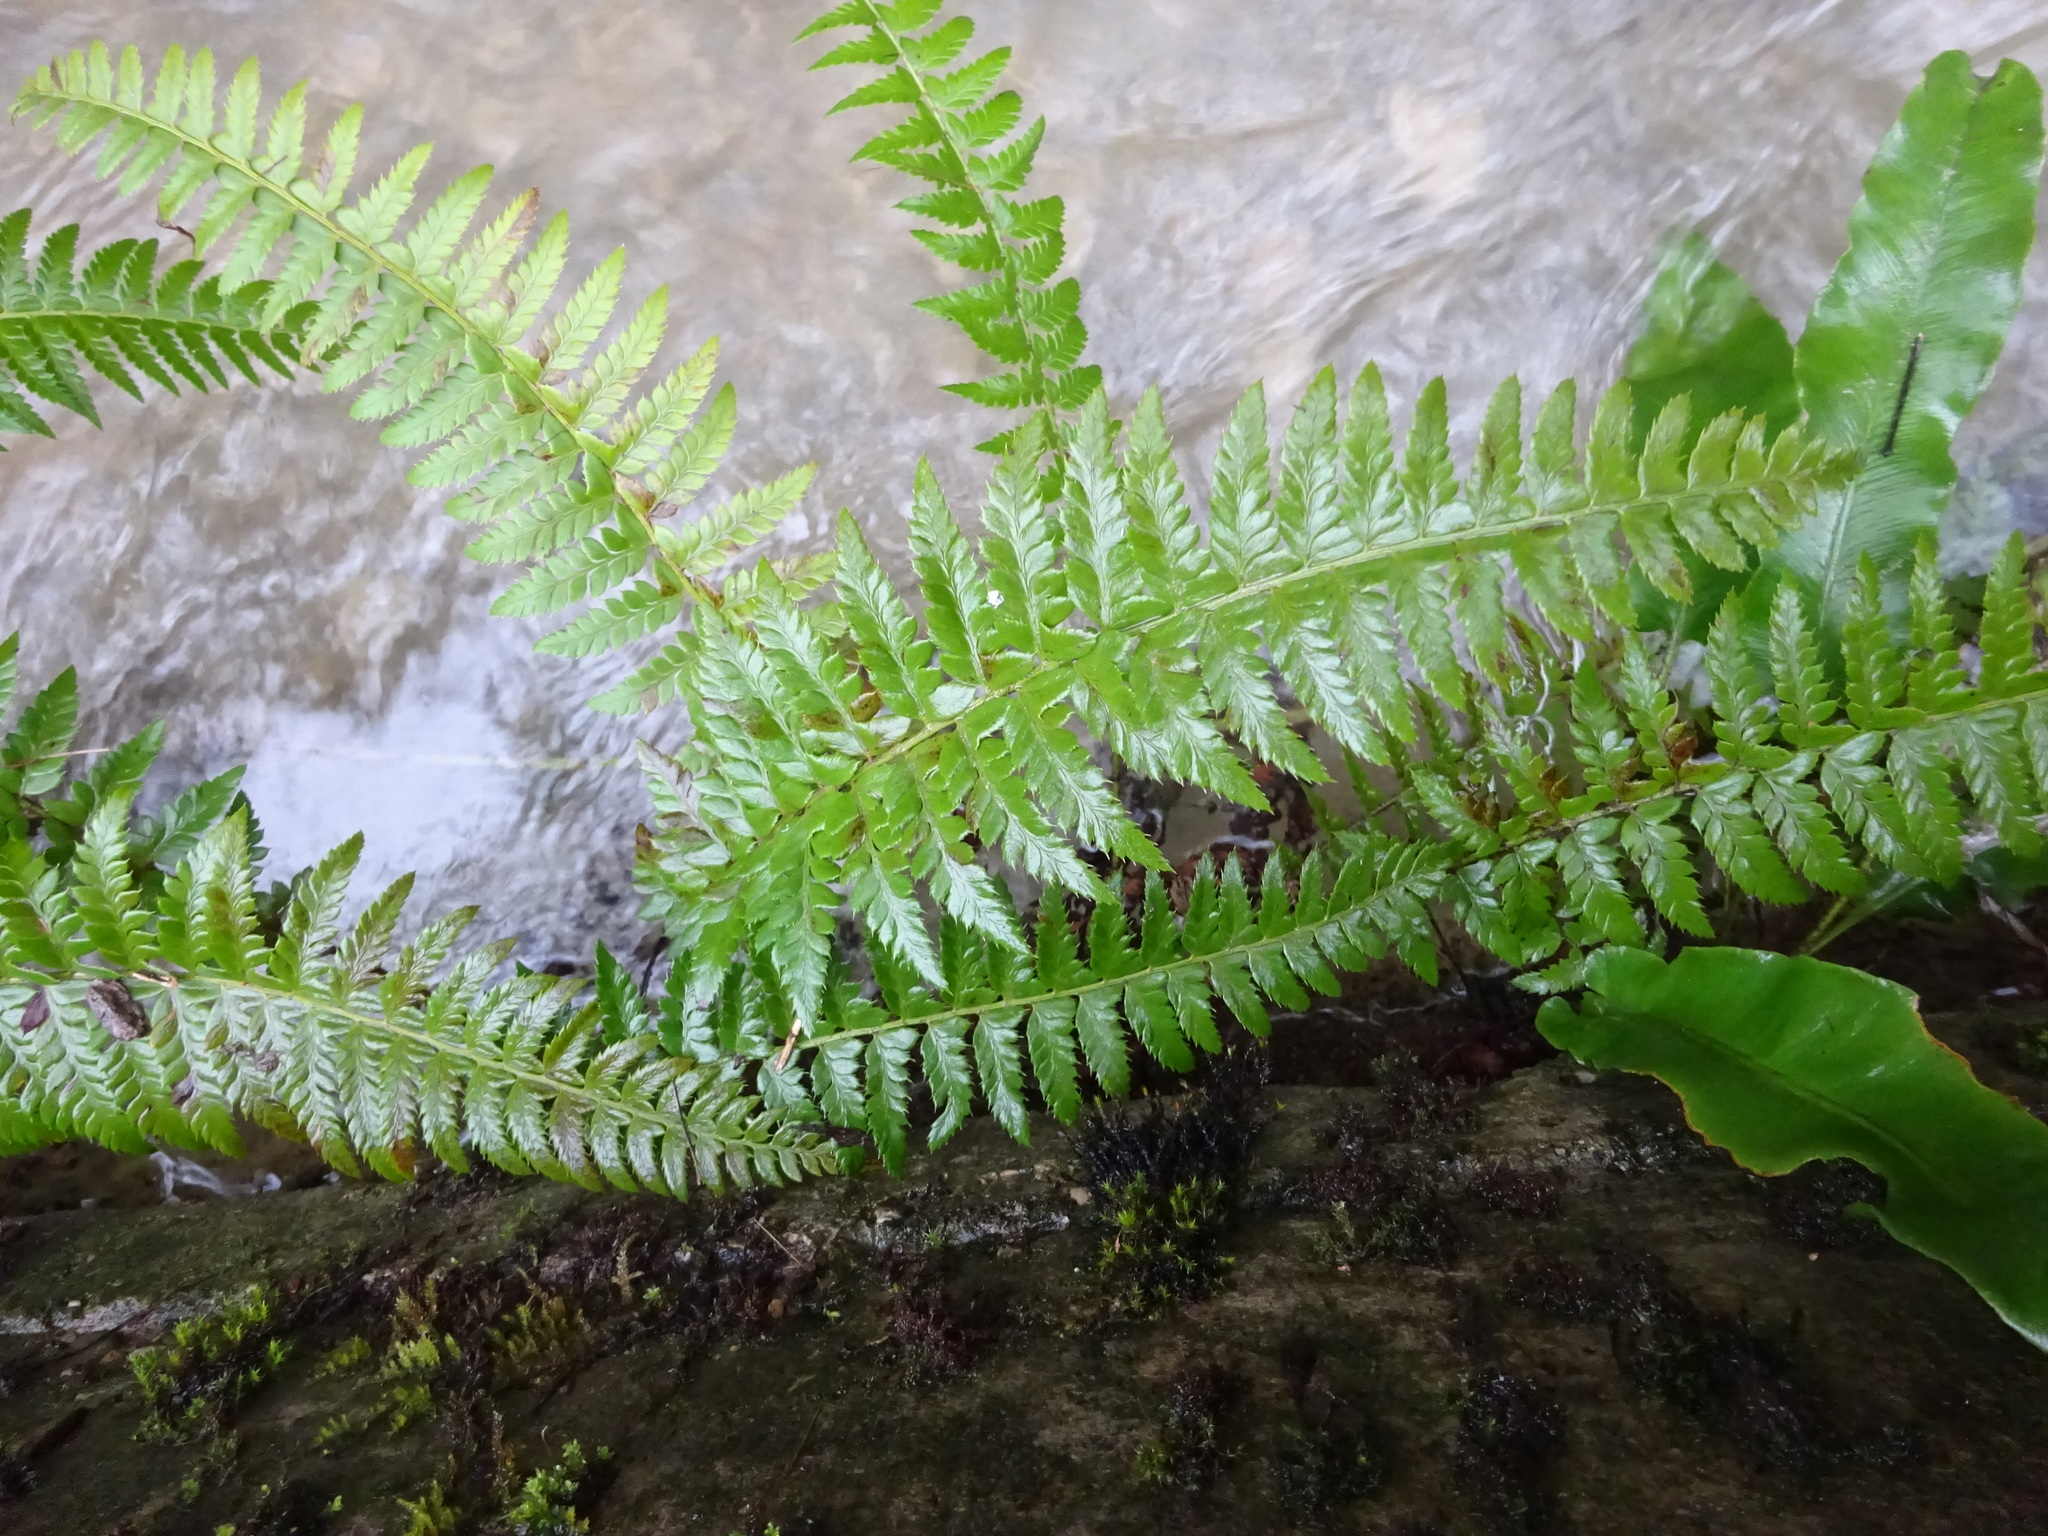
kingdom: Plantae
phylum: Tracheophyta
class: Polypodiopsida
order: Polypodiales
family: Dryopteridaceae
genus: Polystichum
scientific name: Polystichum aculeatum
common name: Hard shield-fern
